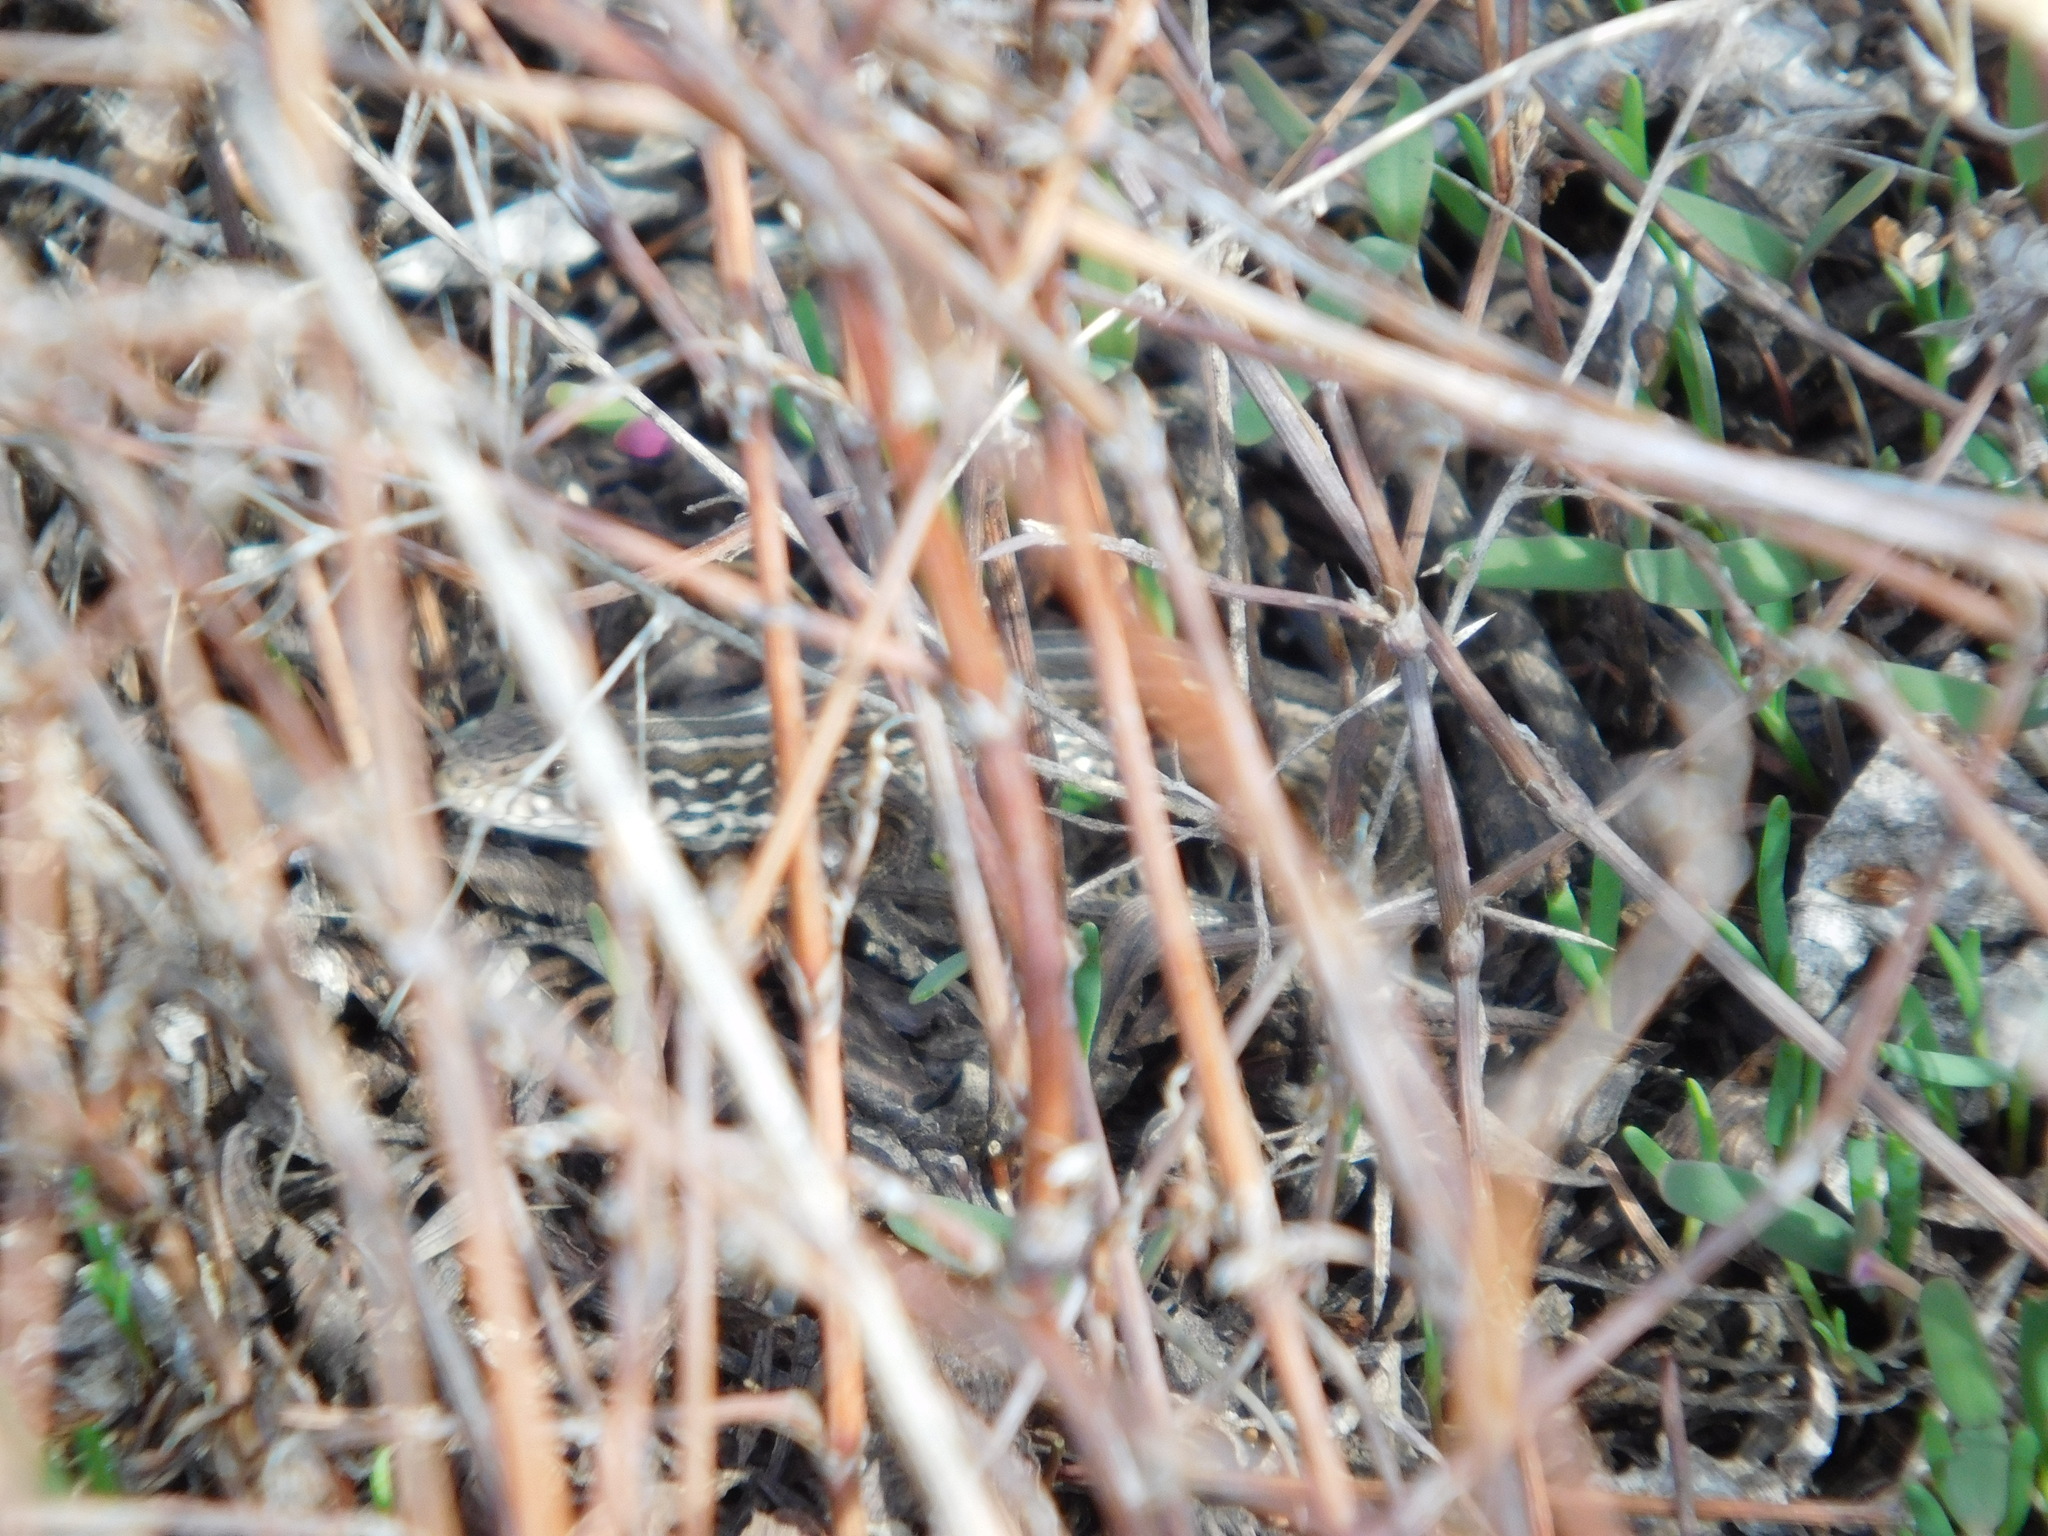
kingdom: Animalia
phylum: Chordata
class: Squamata
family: Lacertidae
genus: Lacerta
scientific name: Lacerta agilis
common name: Sand lizard
